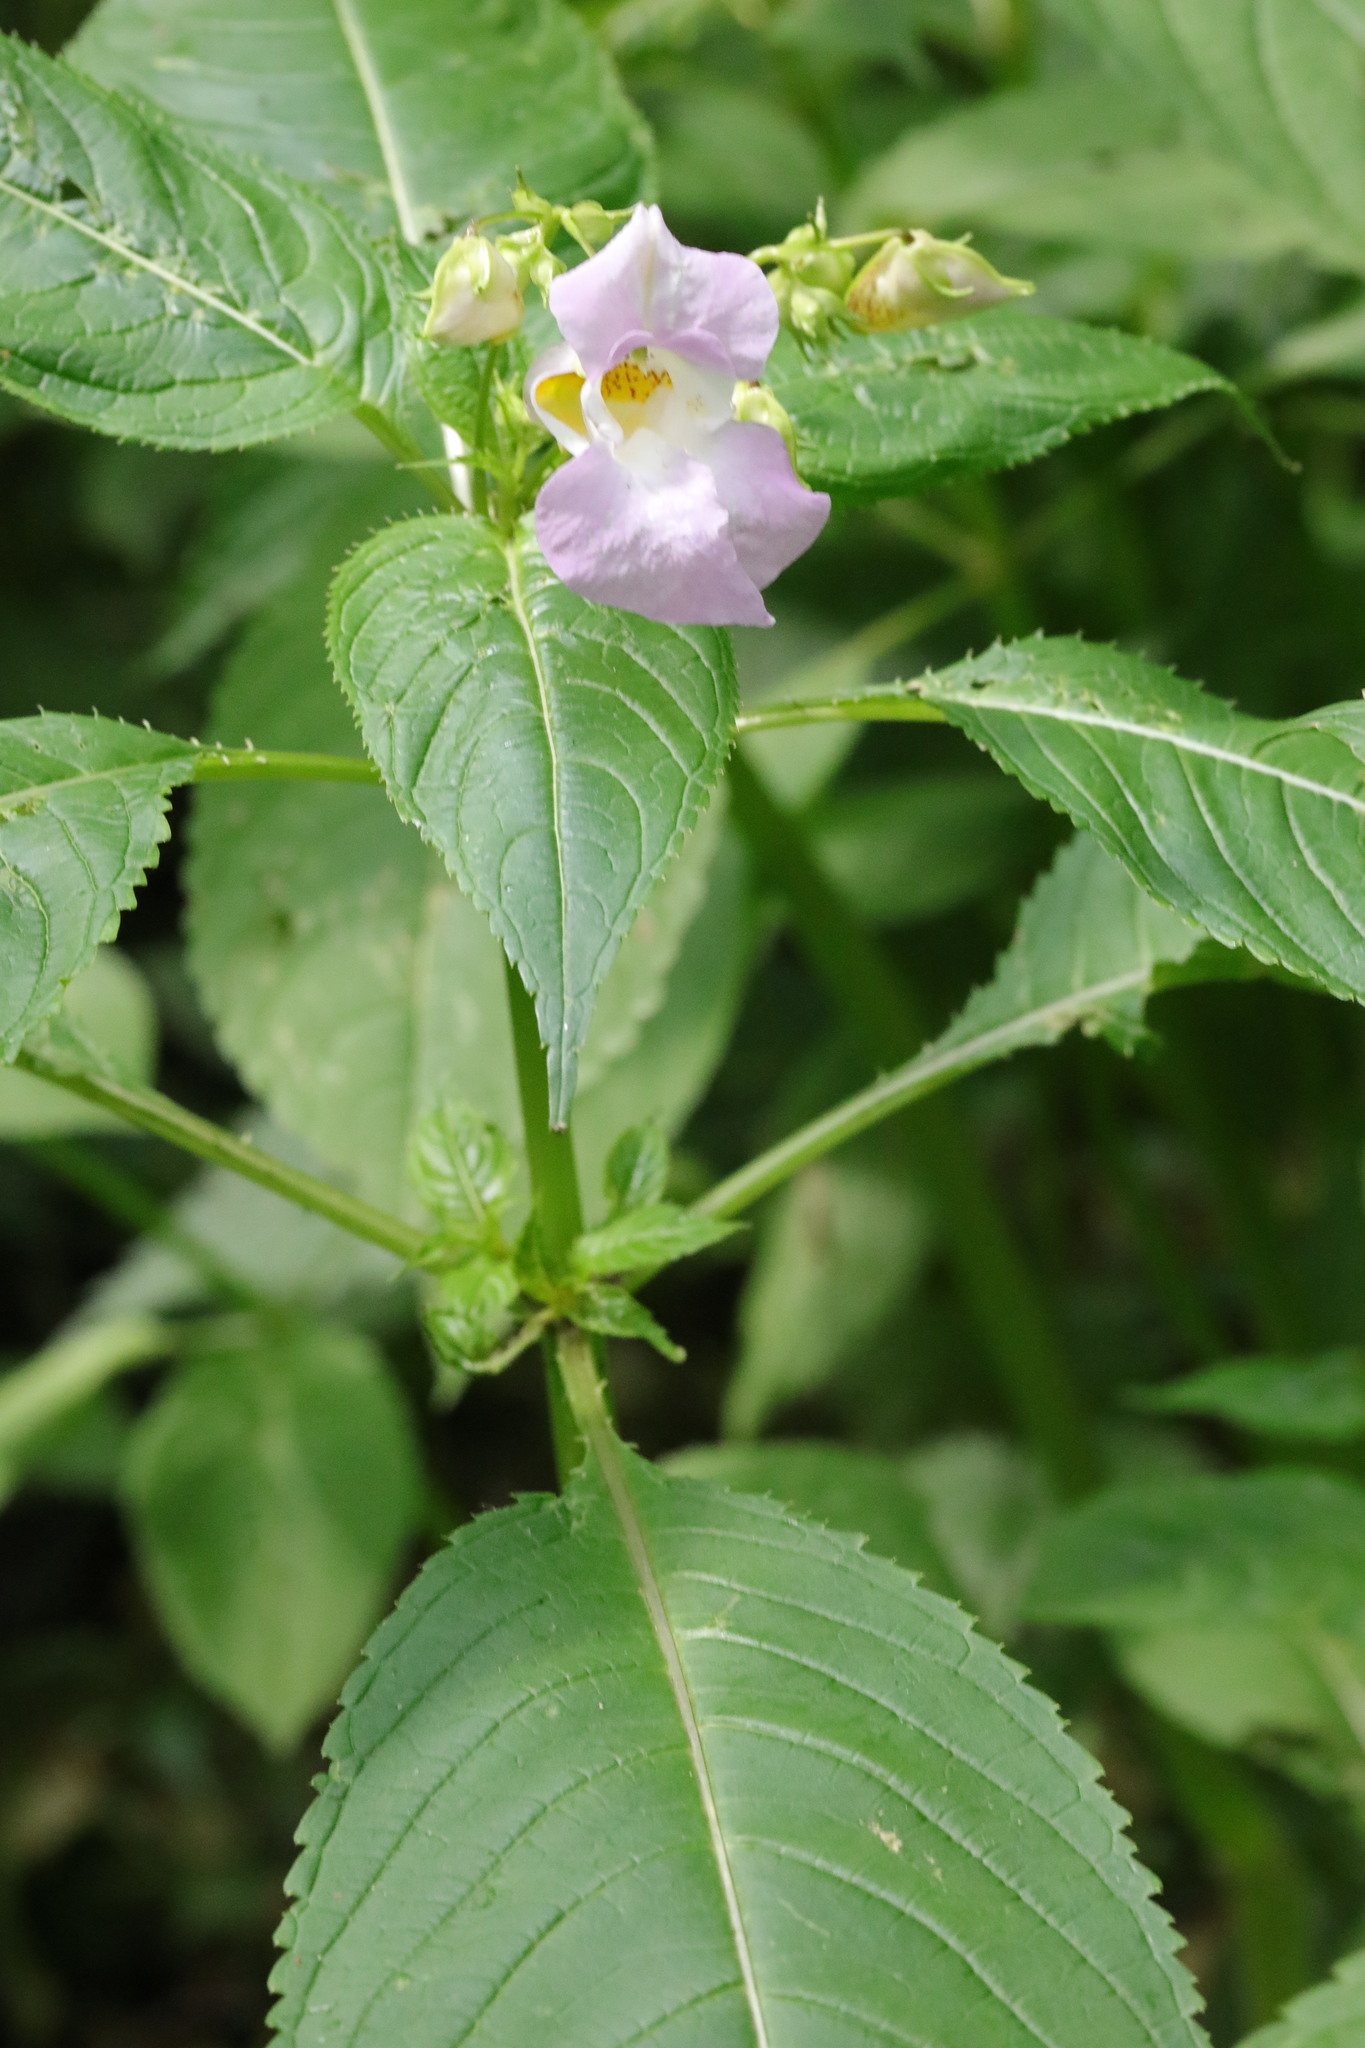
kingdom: Plantae
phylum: Tracheophyta
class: Magnoliopsida
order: Ericales
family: Balsaminaceae
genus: Impatiens
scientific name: Impatiens glandulifera
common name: Himalayan balsam
